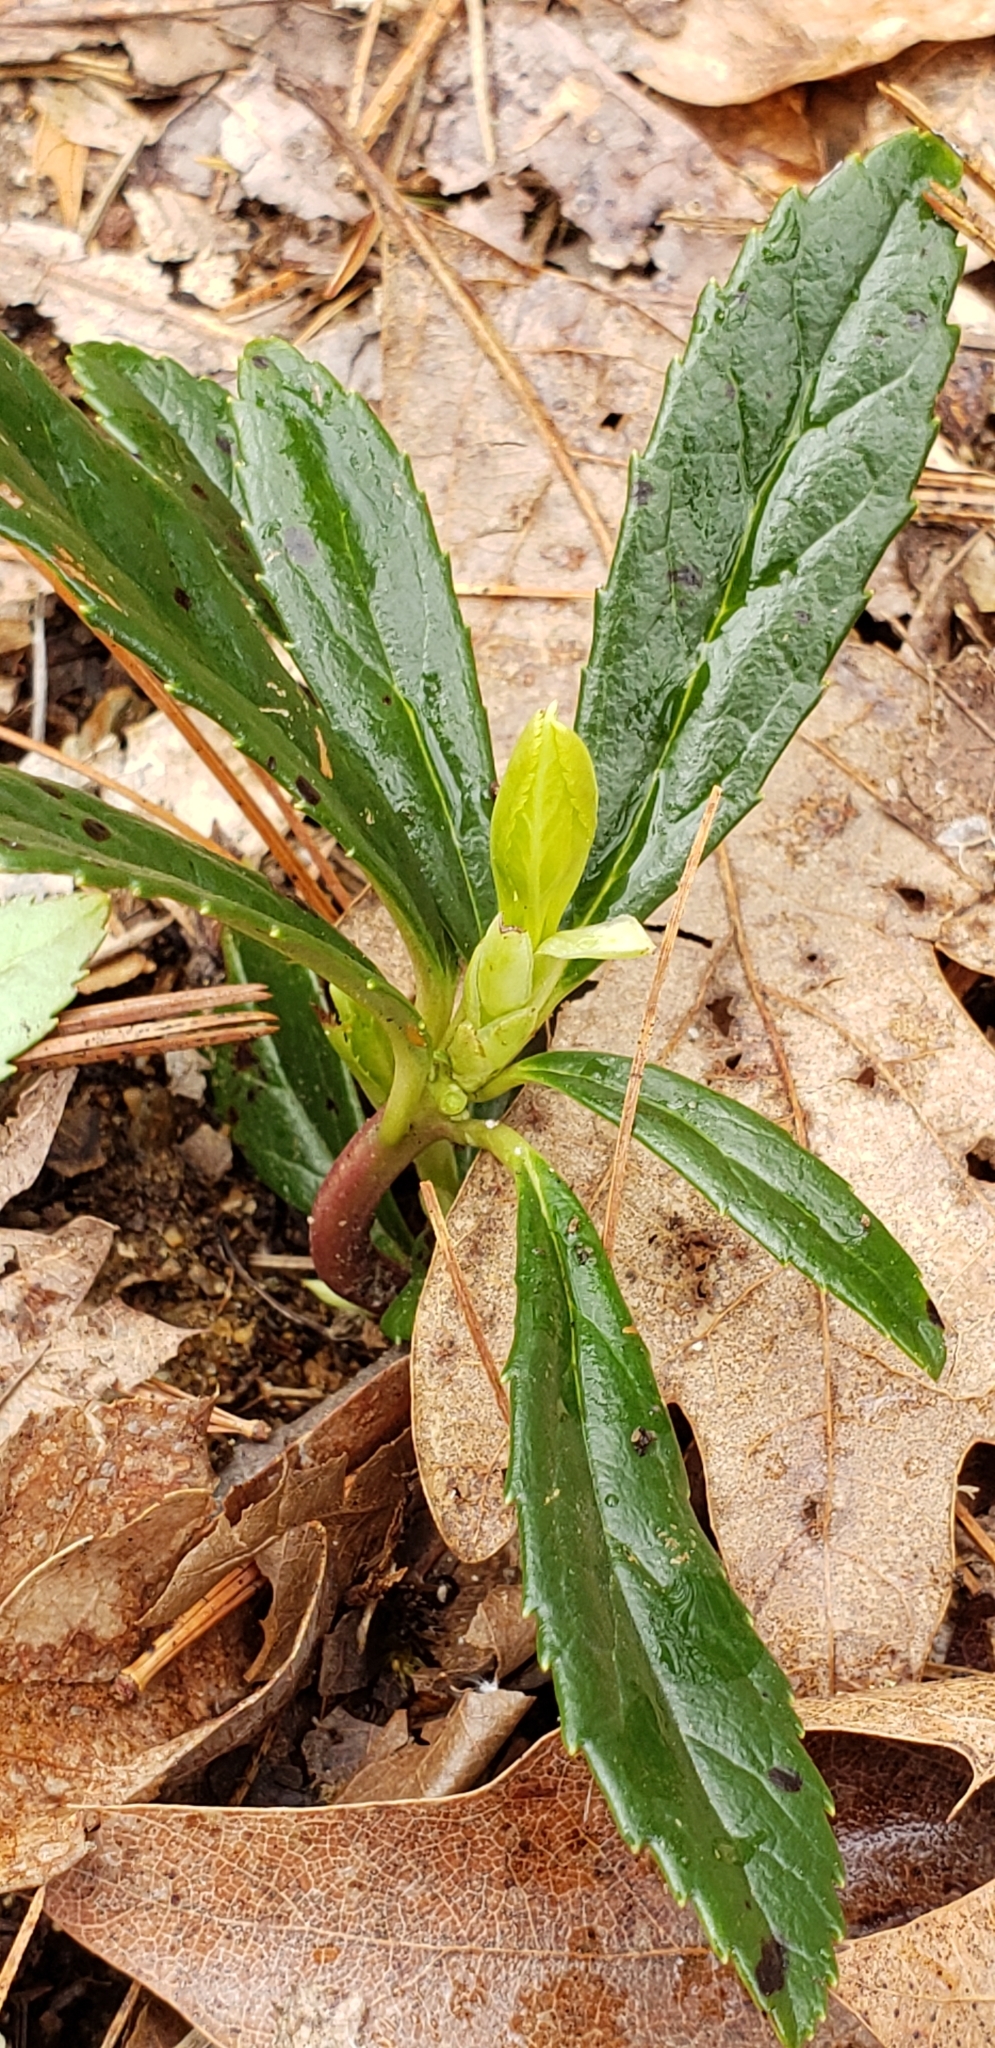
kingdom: Plantae
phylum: Tracheophyta
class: Magnoliopsida
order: Ericales
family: Ericaceae
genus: Chimaphila
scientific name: Chimaphila umbellata
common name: Pipsissewa
